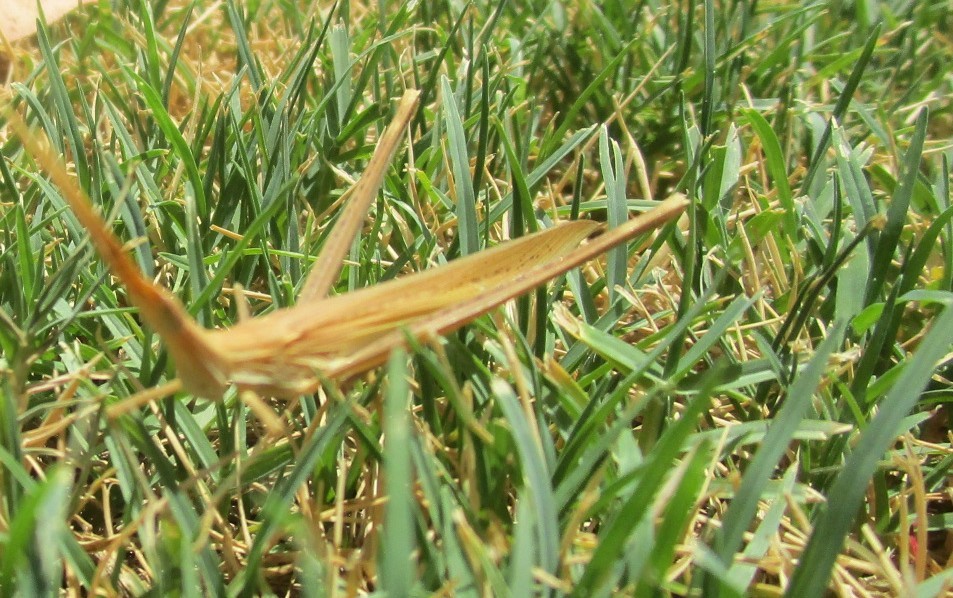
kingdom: Animalia
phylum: Arthropoda
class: Insecta
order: Orthoptera
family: Acrididae
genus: Acrida
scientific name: Acrida conica
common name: Giant green slantface
